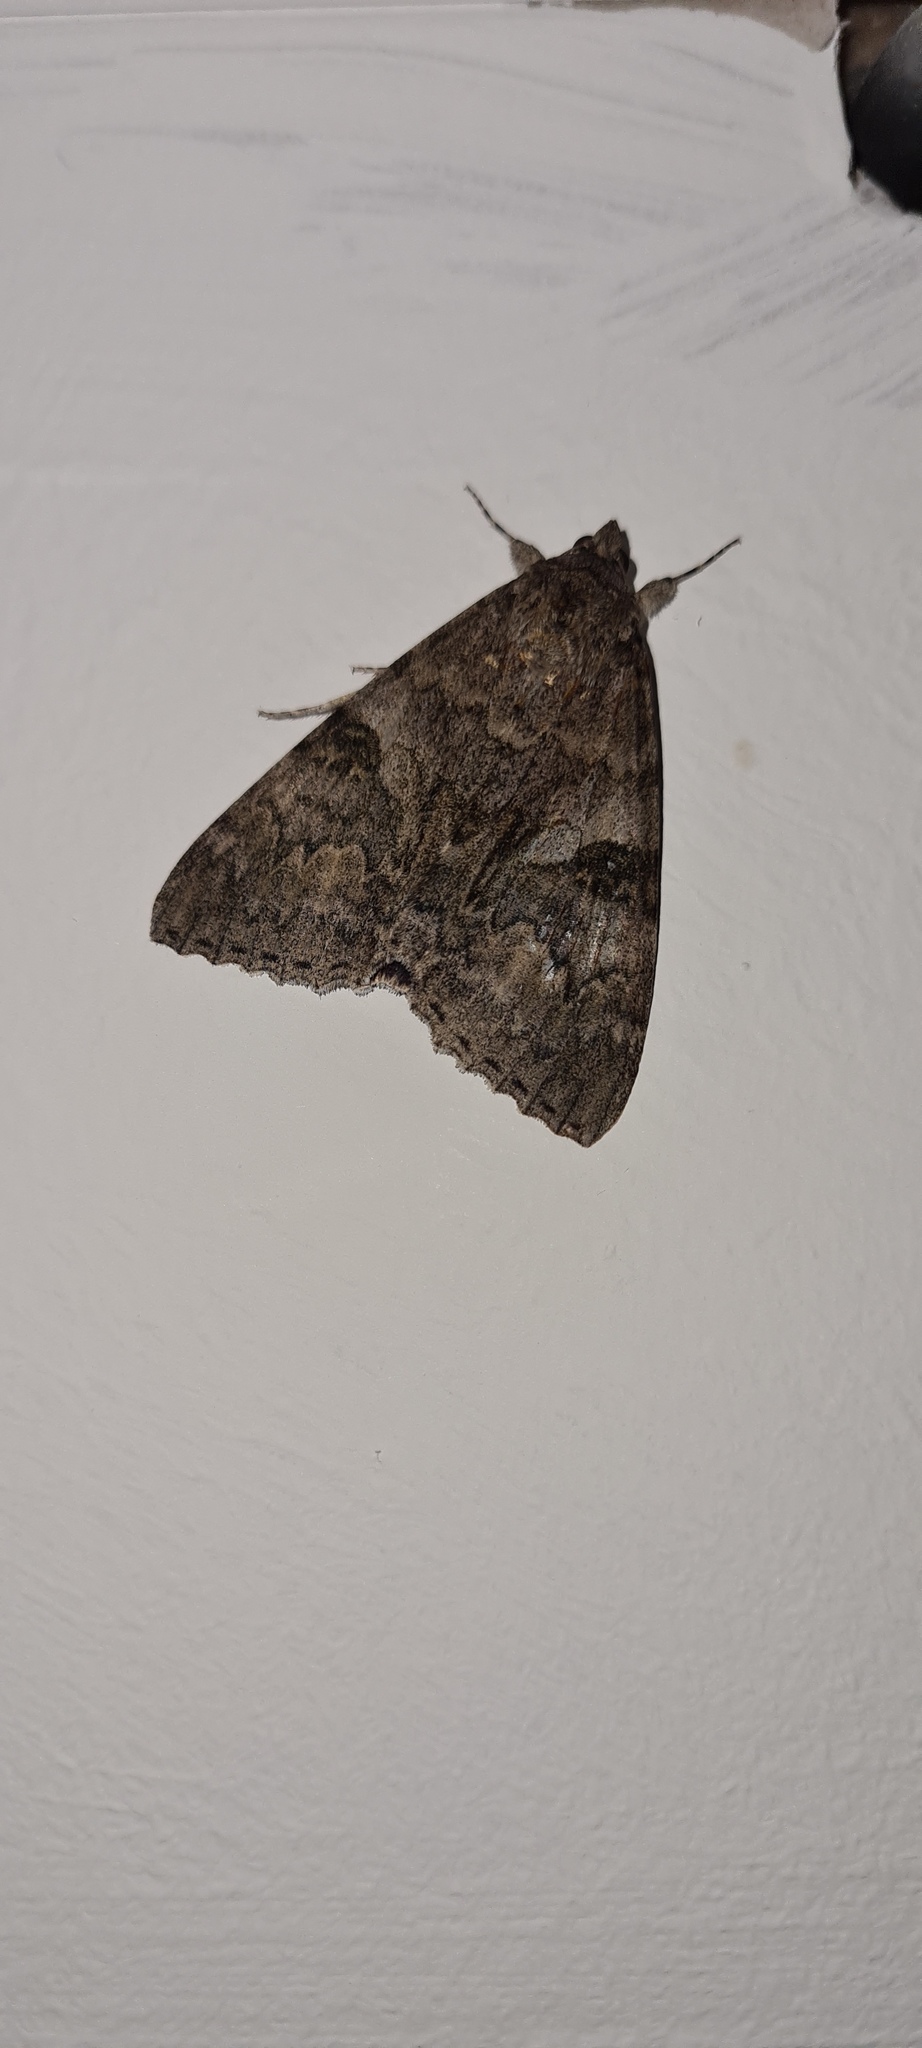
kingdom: Animalia
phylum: Arthropoda
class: Insecta
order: Lepidoptera
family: Erebidae
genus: Catocala
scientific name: Catocala nupta
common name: Red underwing
